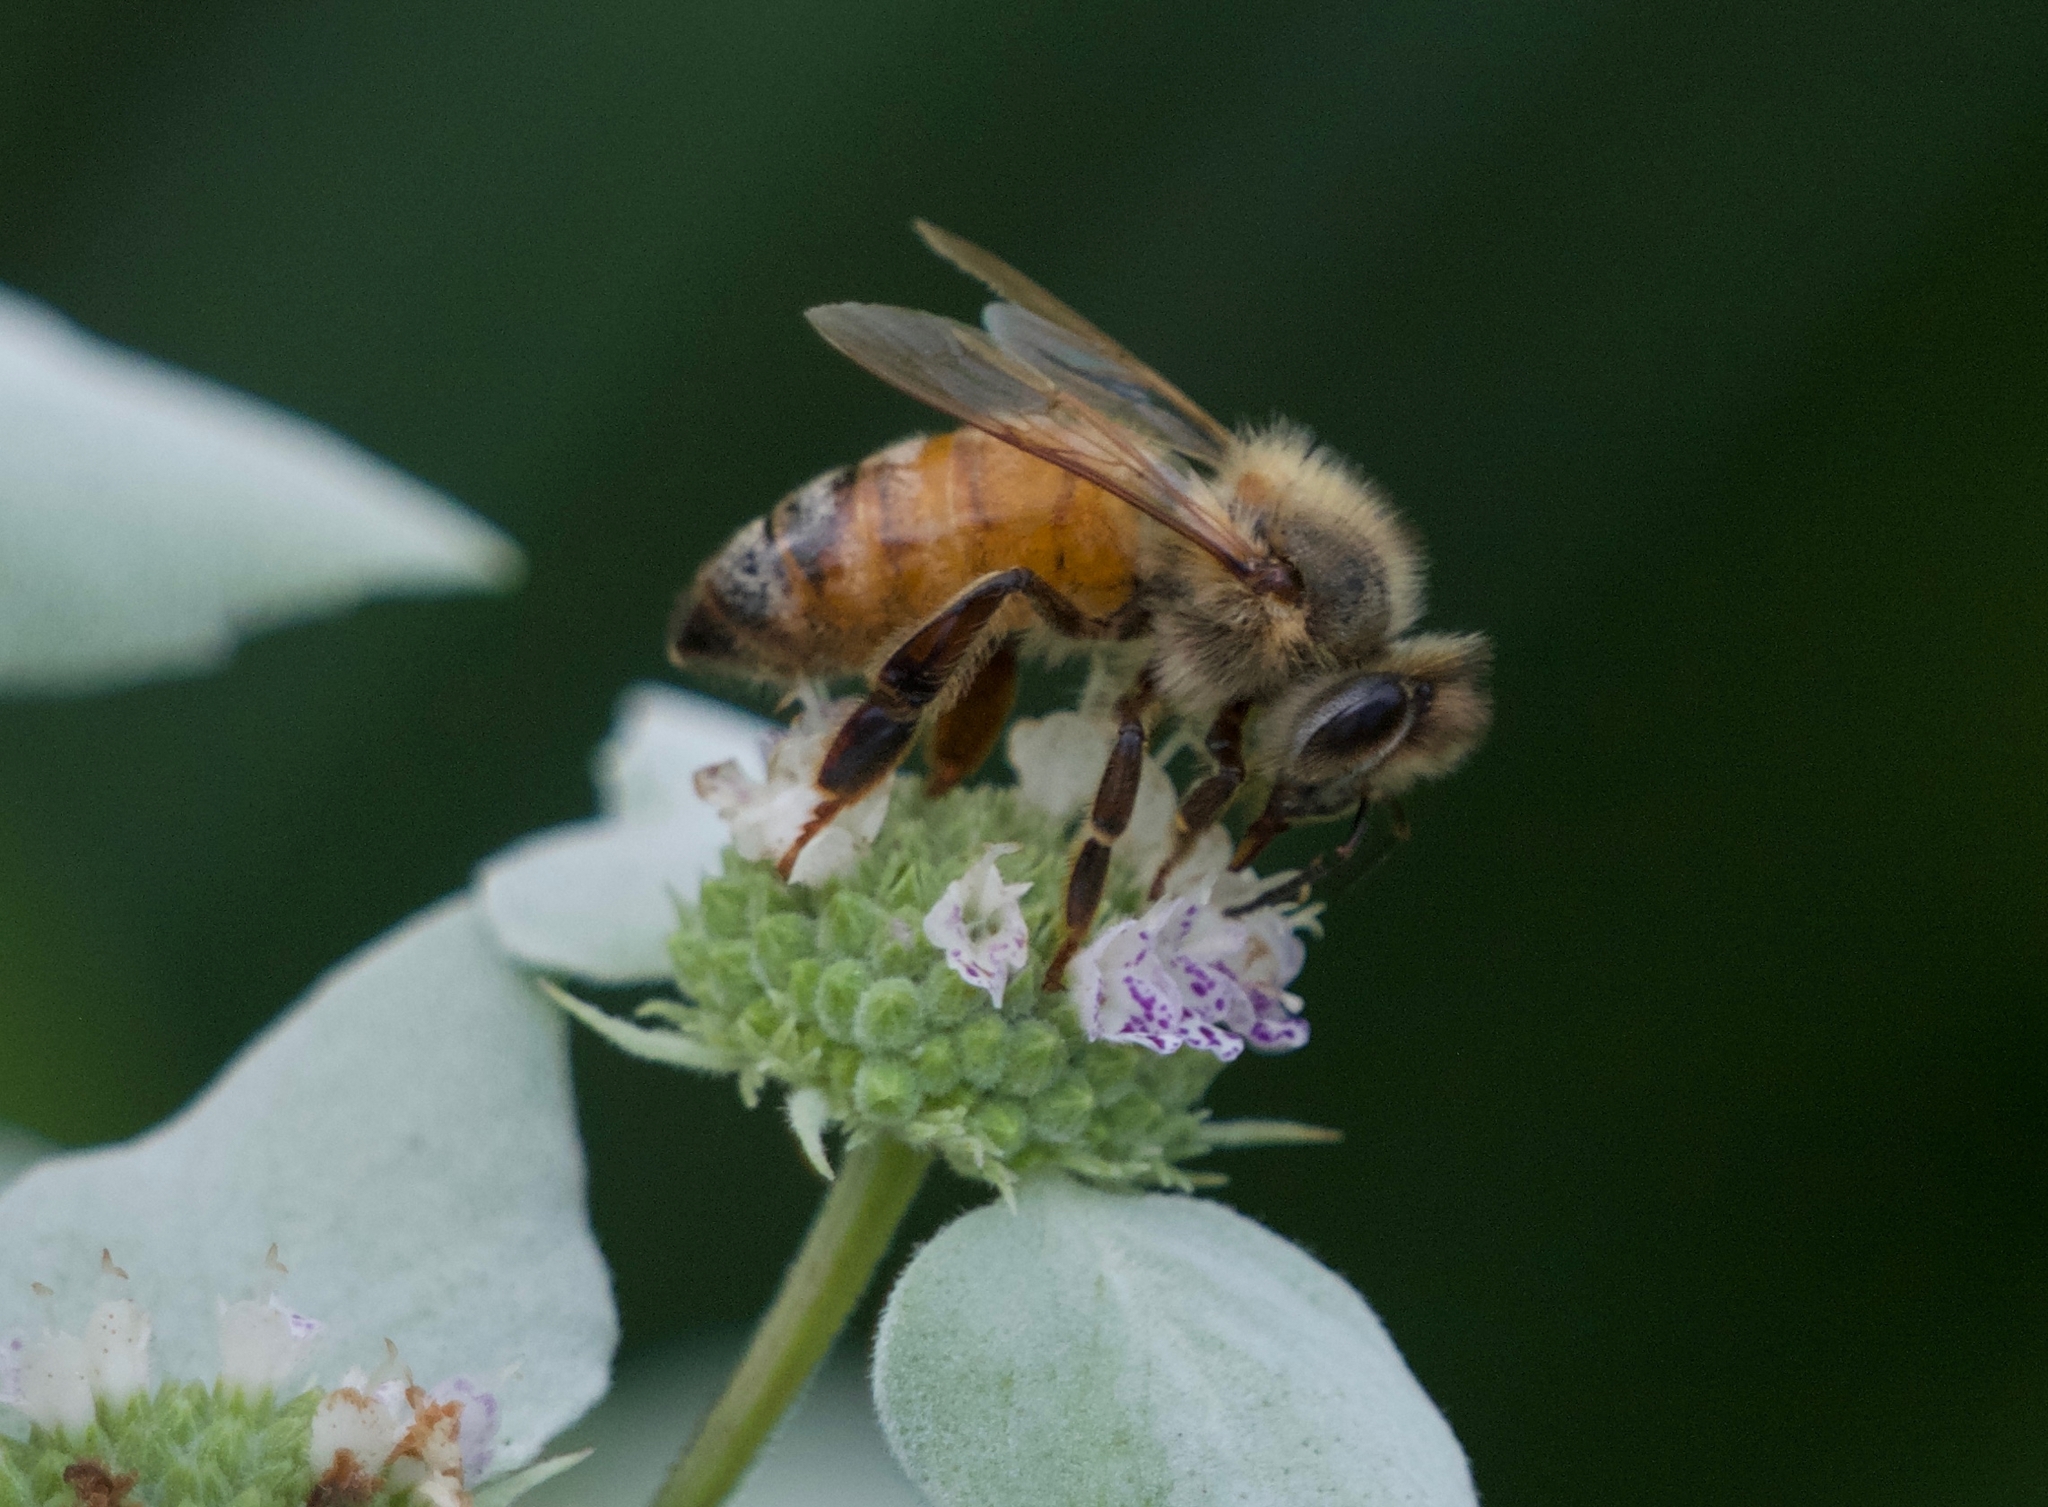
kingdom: Animalia
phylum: Arthropoda
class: Insecta
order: Hymenoptera
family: Apidae
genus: Apis
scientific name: Apis mellifera
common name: Honey bee
